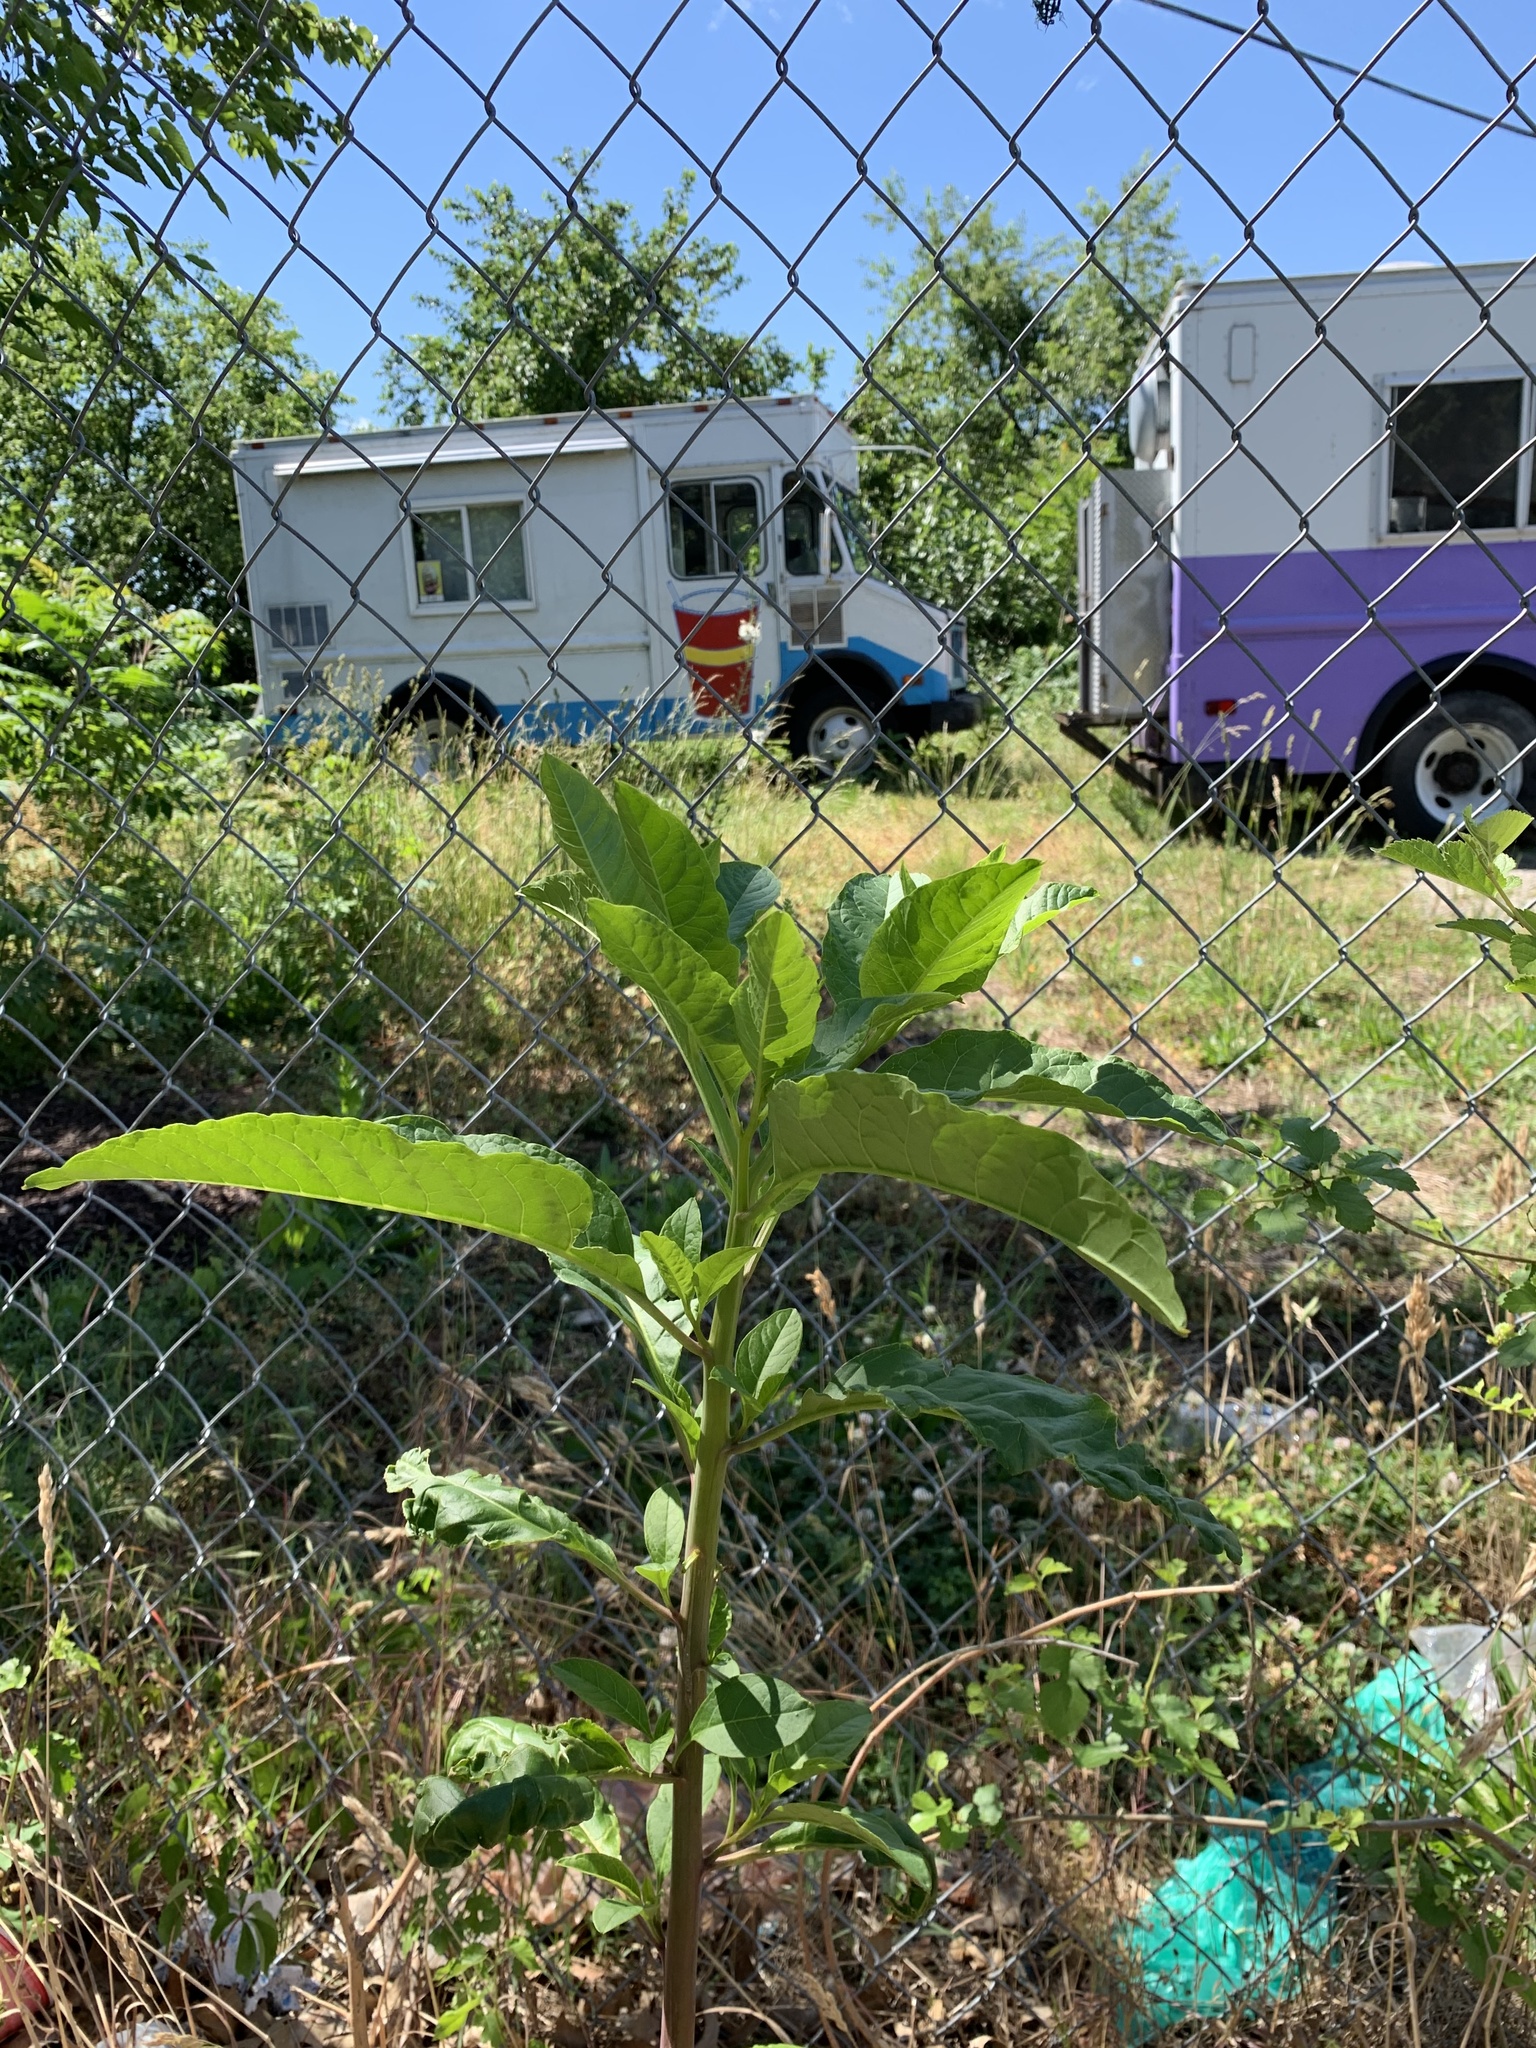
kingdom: Plantae
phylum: Tracheophyta
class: Magnoliopsida
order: Caryophyllales
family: Phytolaccaceae
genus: Phytolacca
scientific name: Phytolacca americana
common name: American pokeweed
